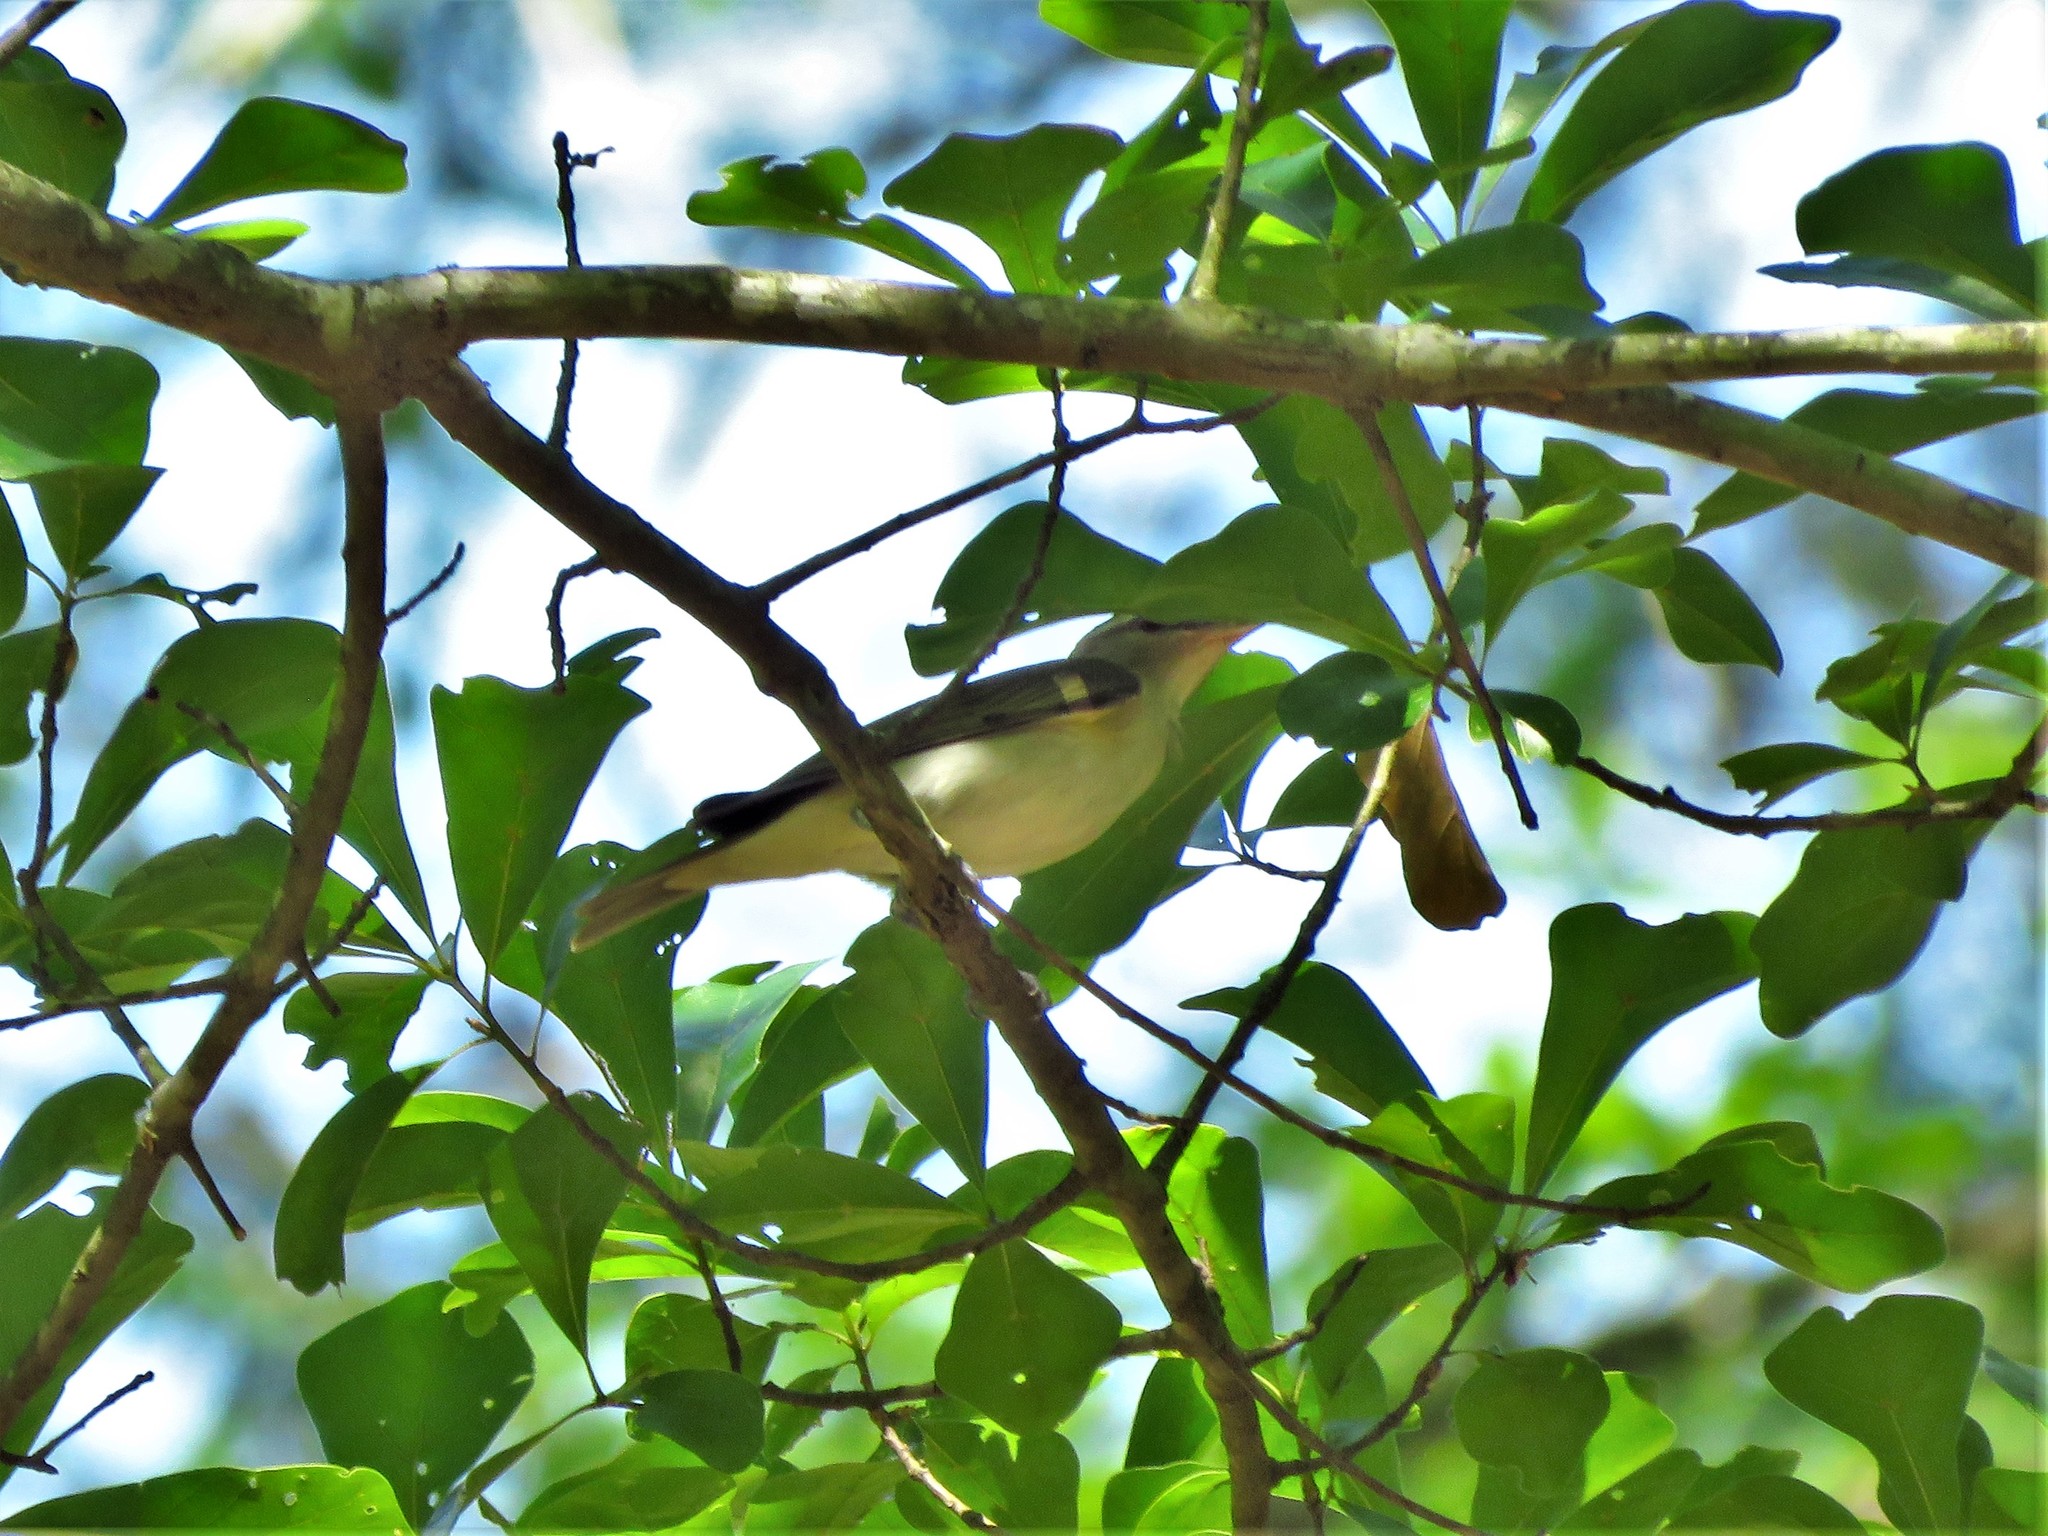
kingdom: Animalia
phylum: Chordata
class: Aves
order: Passeriformes
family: Vireonidae
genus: Vireo
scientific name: Vireo olivaceus
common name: Red-eyed vireo
